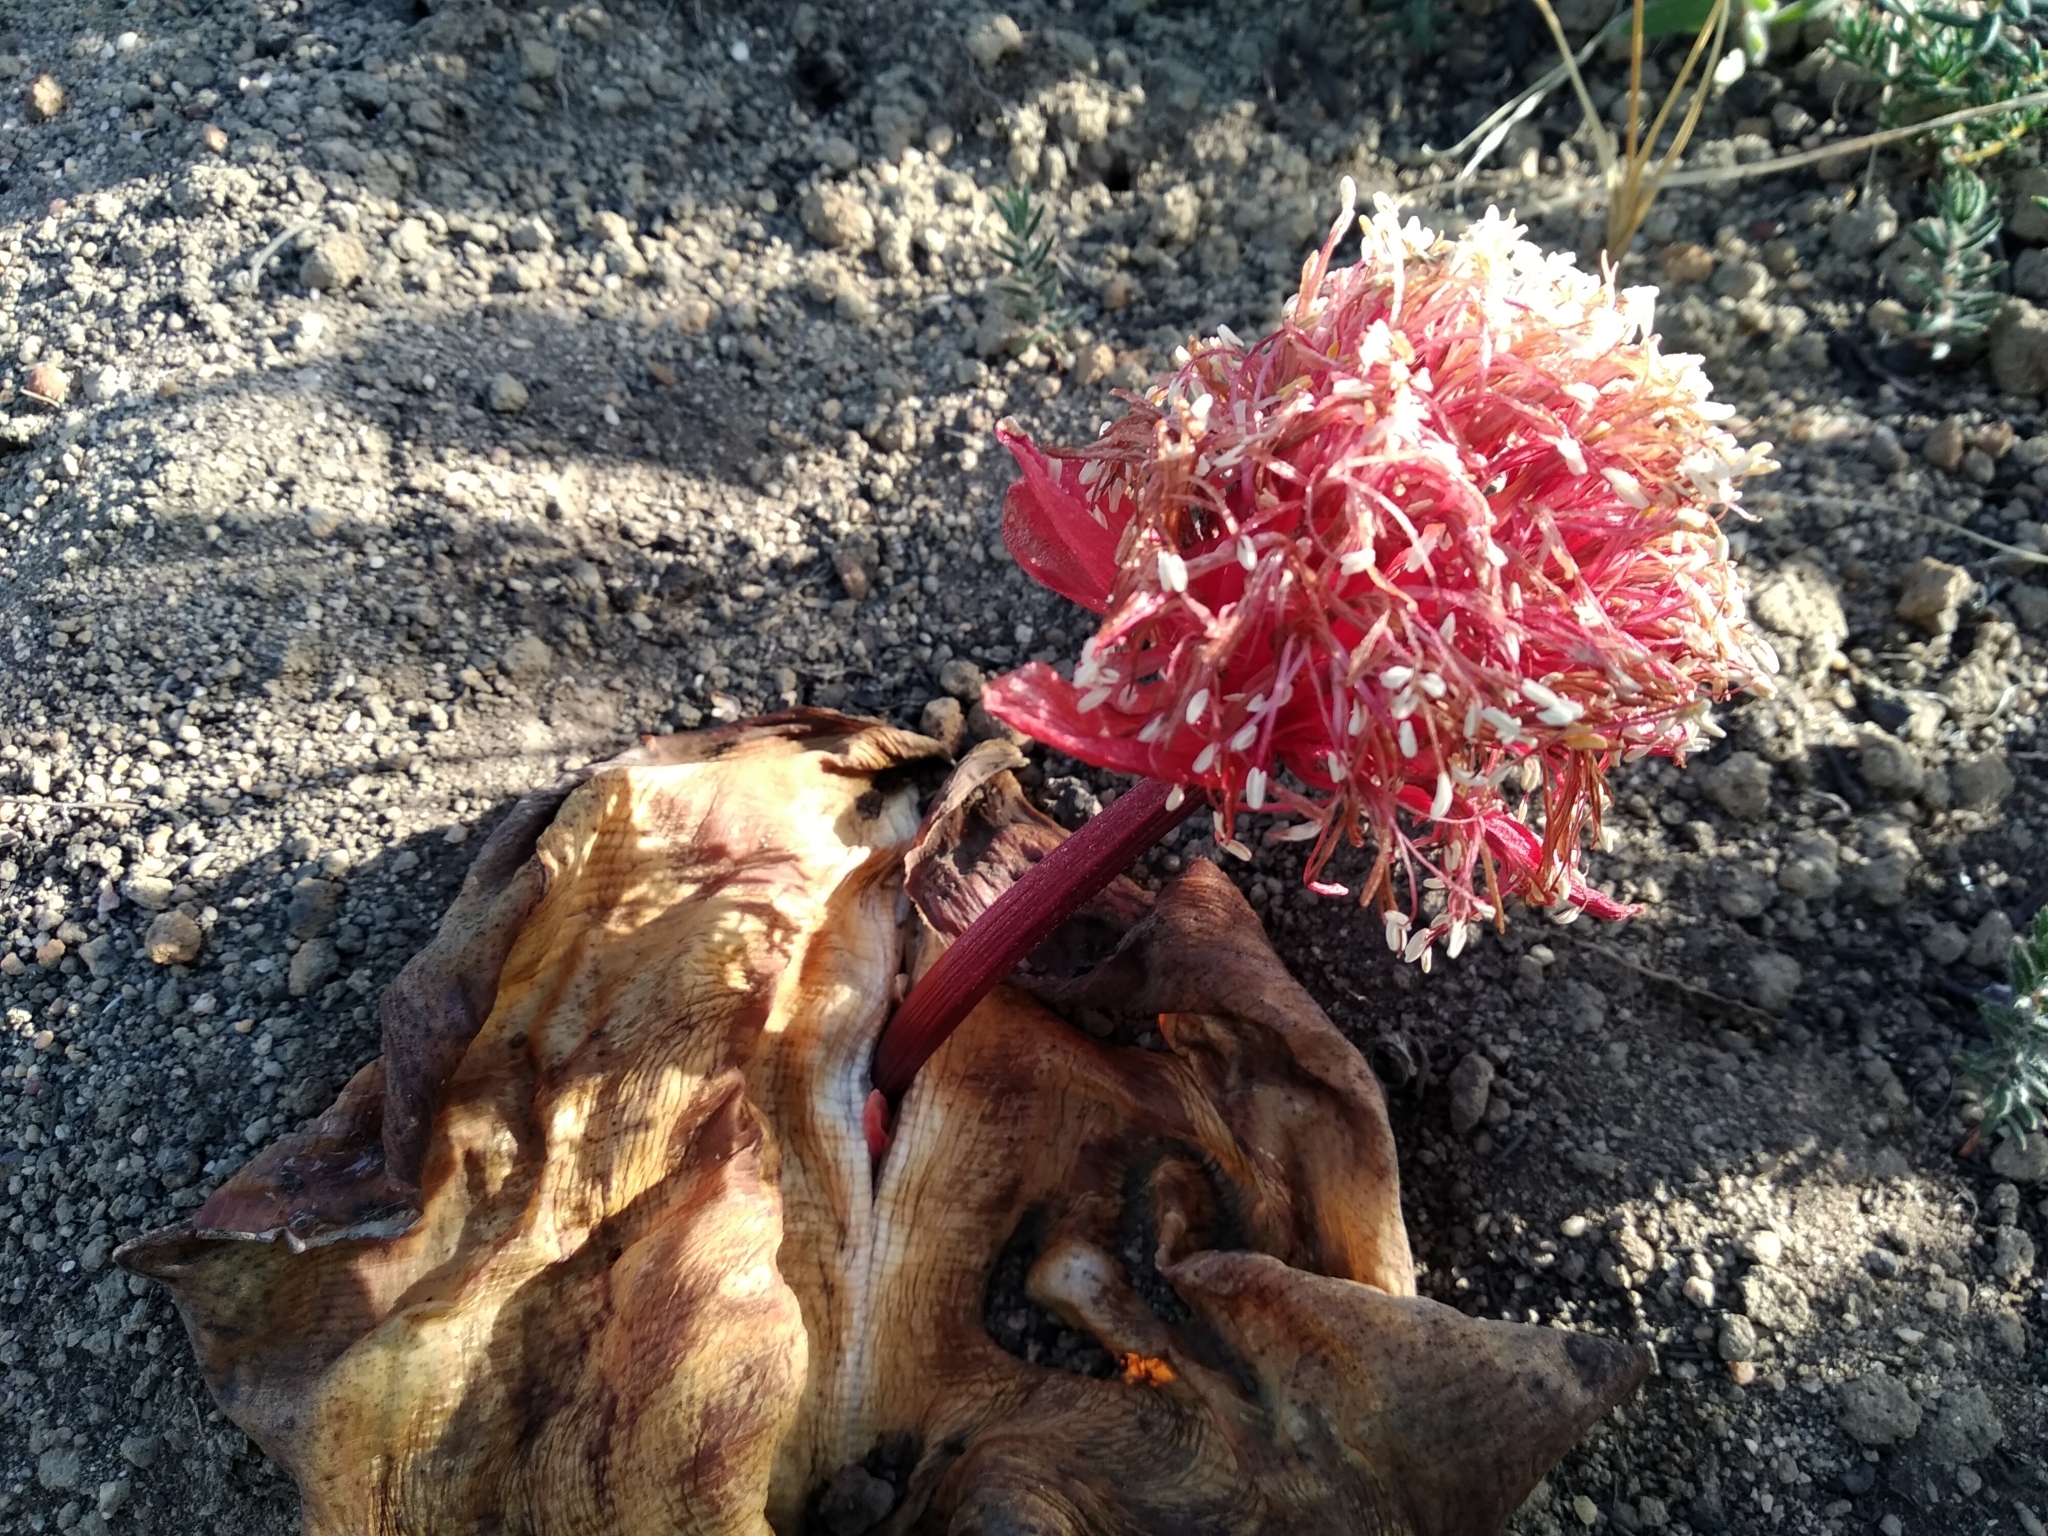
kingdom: Plantae
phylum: Tracheophyta
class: Liliopsida
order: Asparagales
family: Amaryllidaceae
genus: Haemanthus
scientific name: Haemanthus sanguineus
